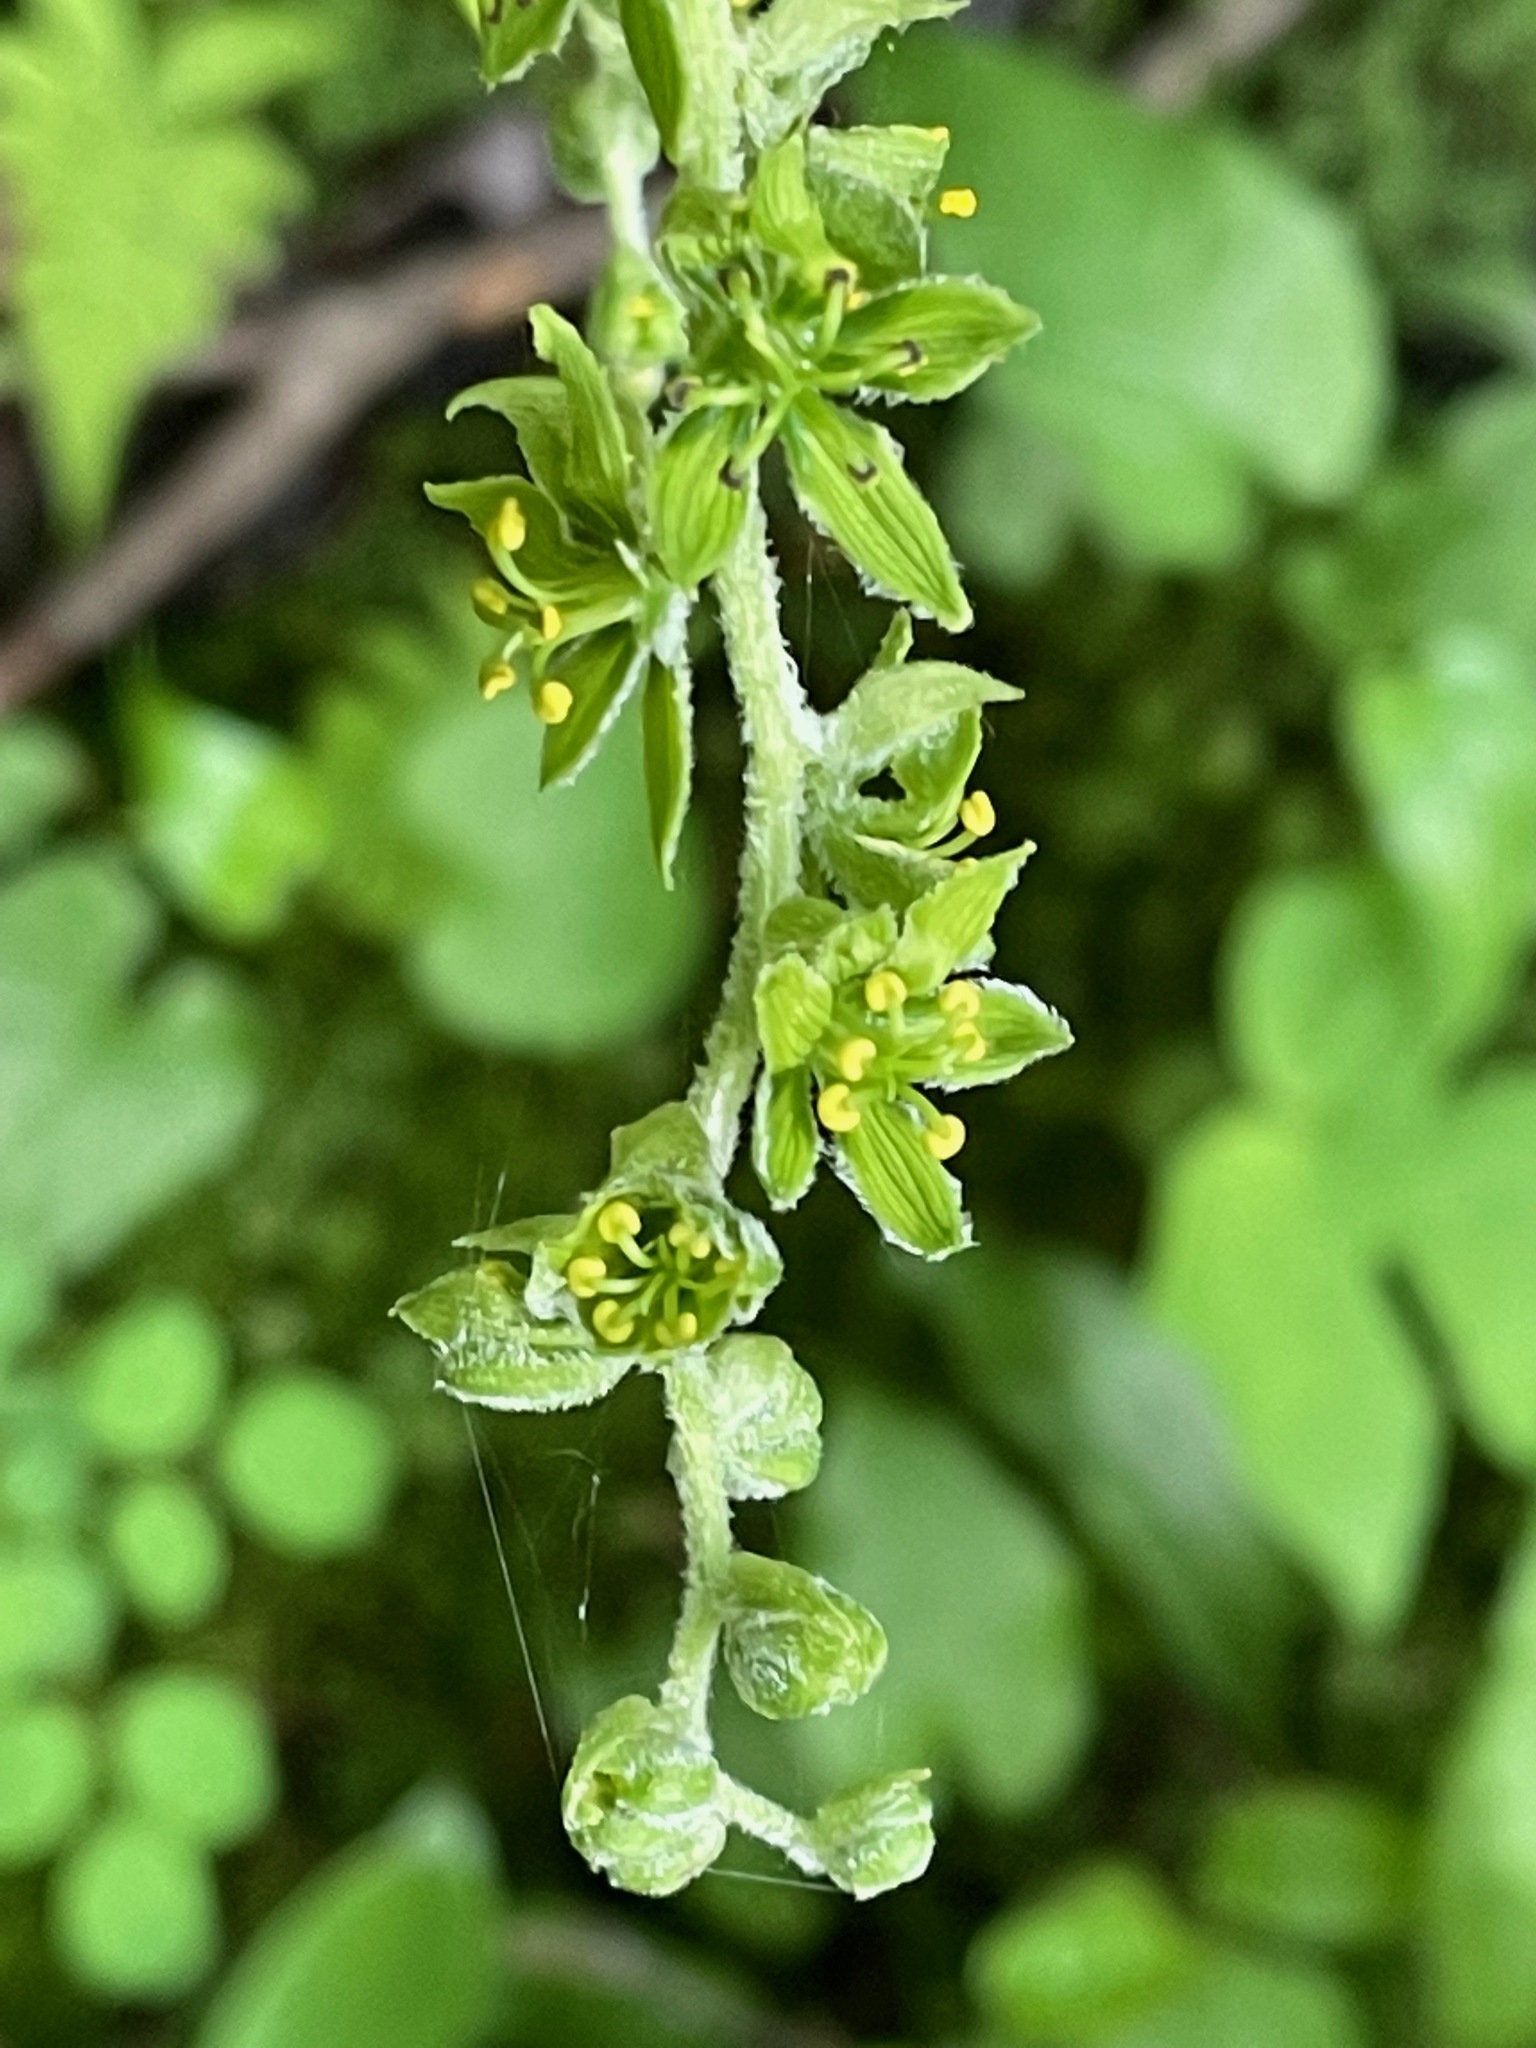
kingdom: Plantae
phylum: Tracheophyta
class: Liliopsida
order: Liliales
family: Melanthiaceae
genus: Veratrum
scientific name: Veratrum viride
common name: American false hellebore
